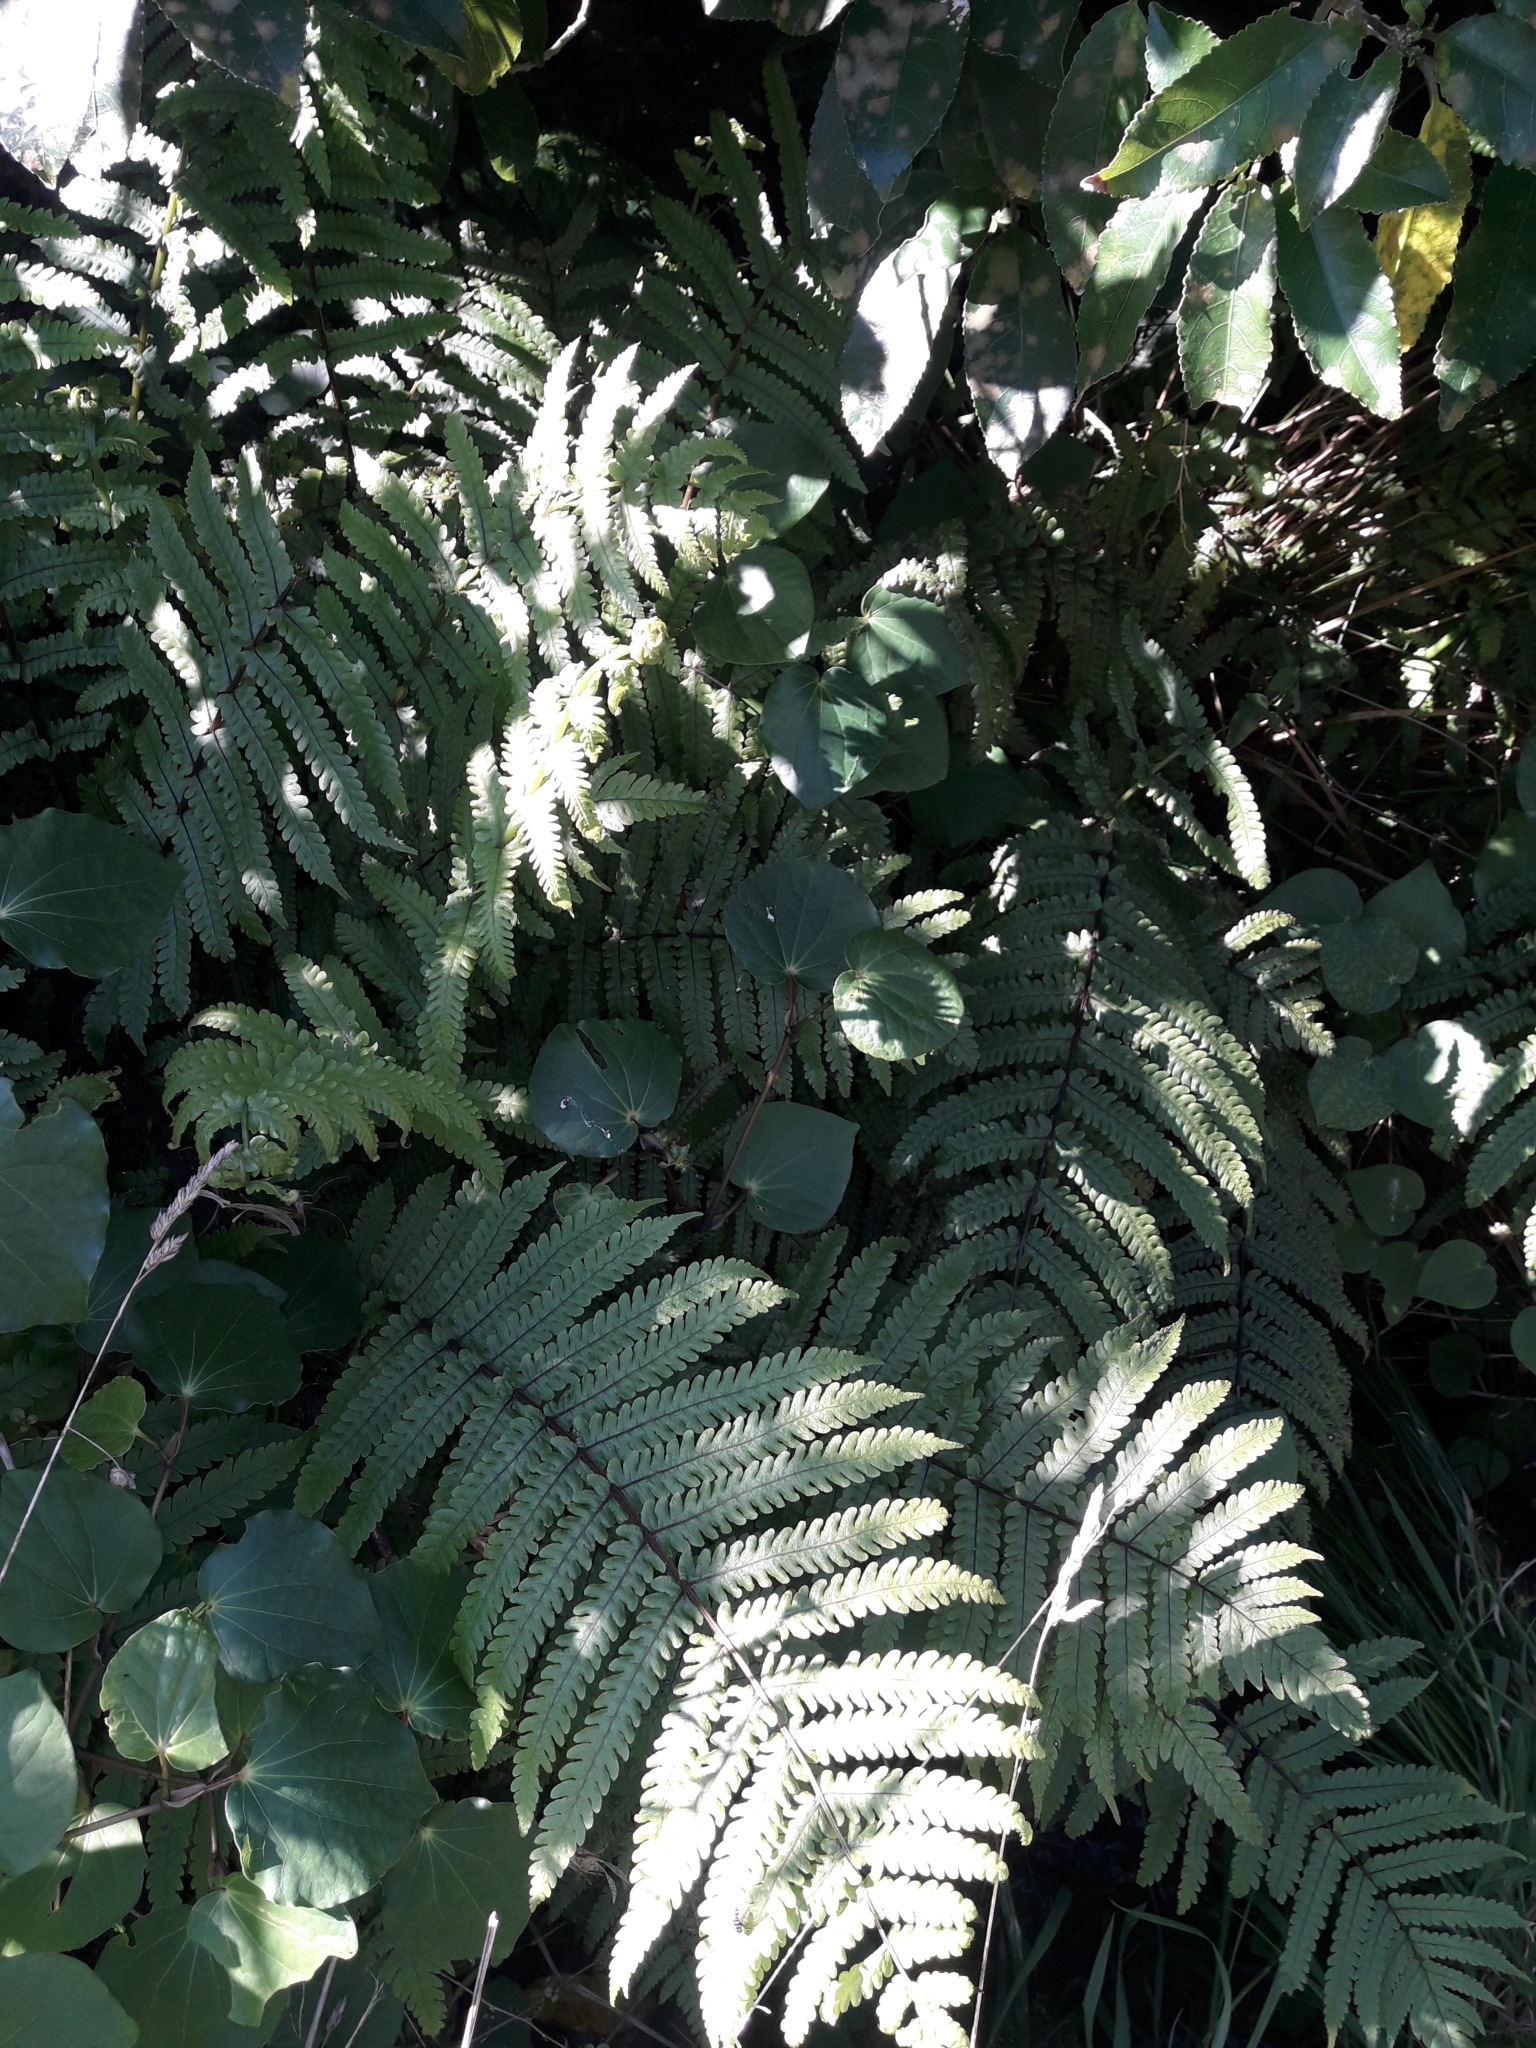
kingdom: Plantae
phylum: Tracheophyta
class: Polypodiopsida
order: Polypodiales
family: Thelypteridaceae
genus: Pakau
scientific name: Pakau pennigera
